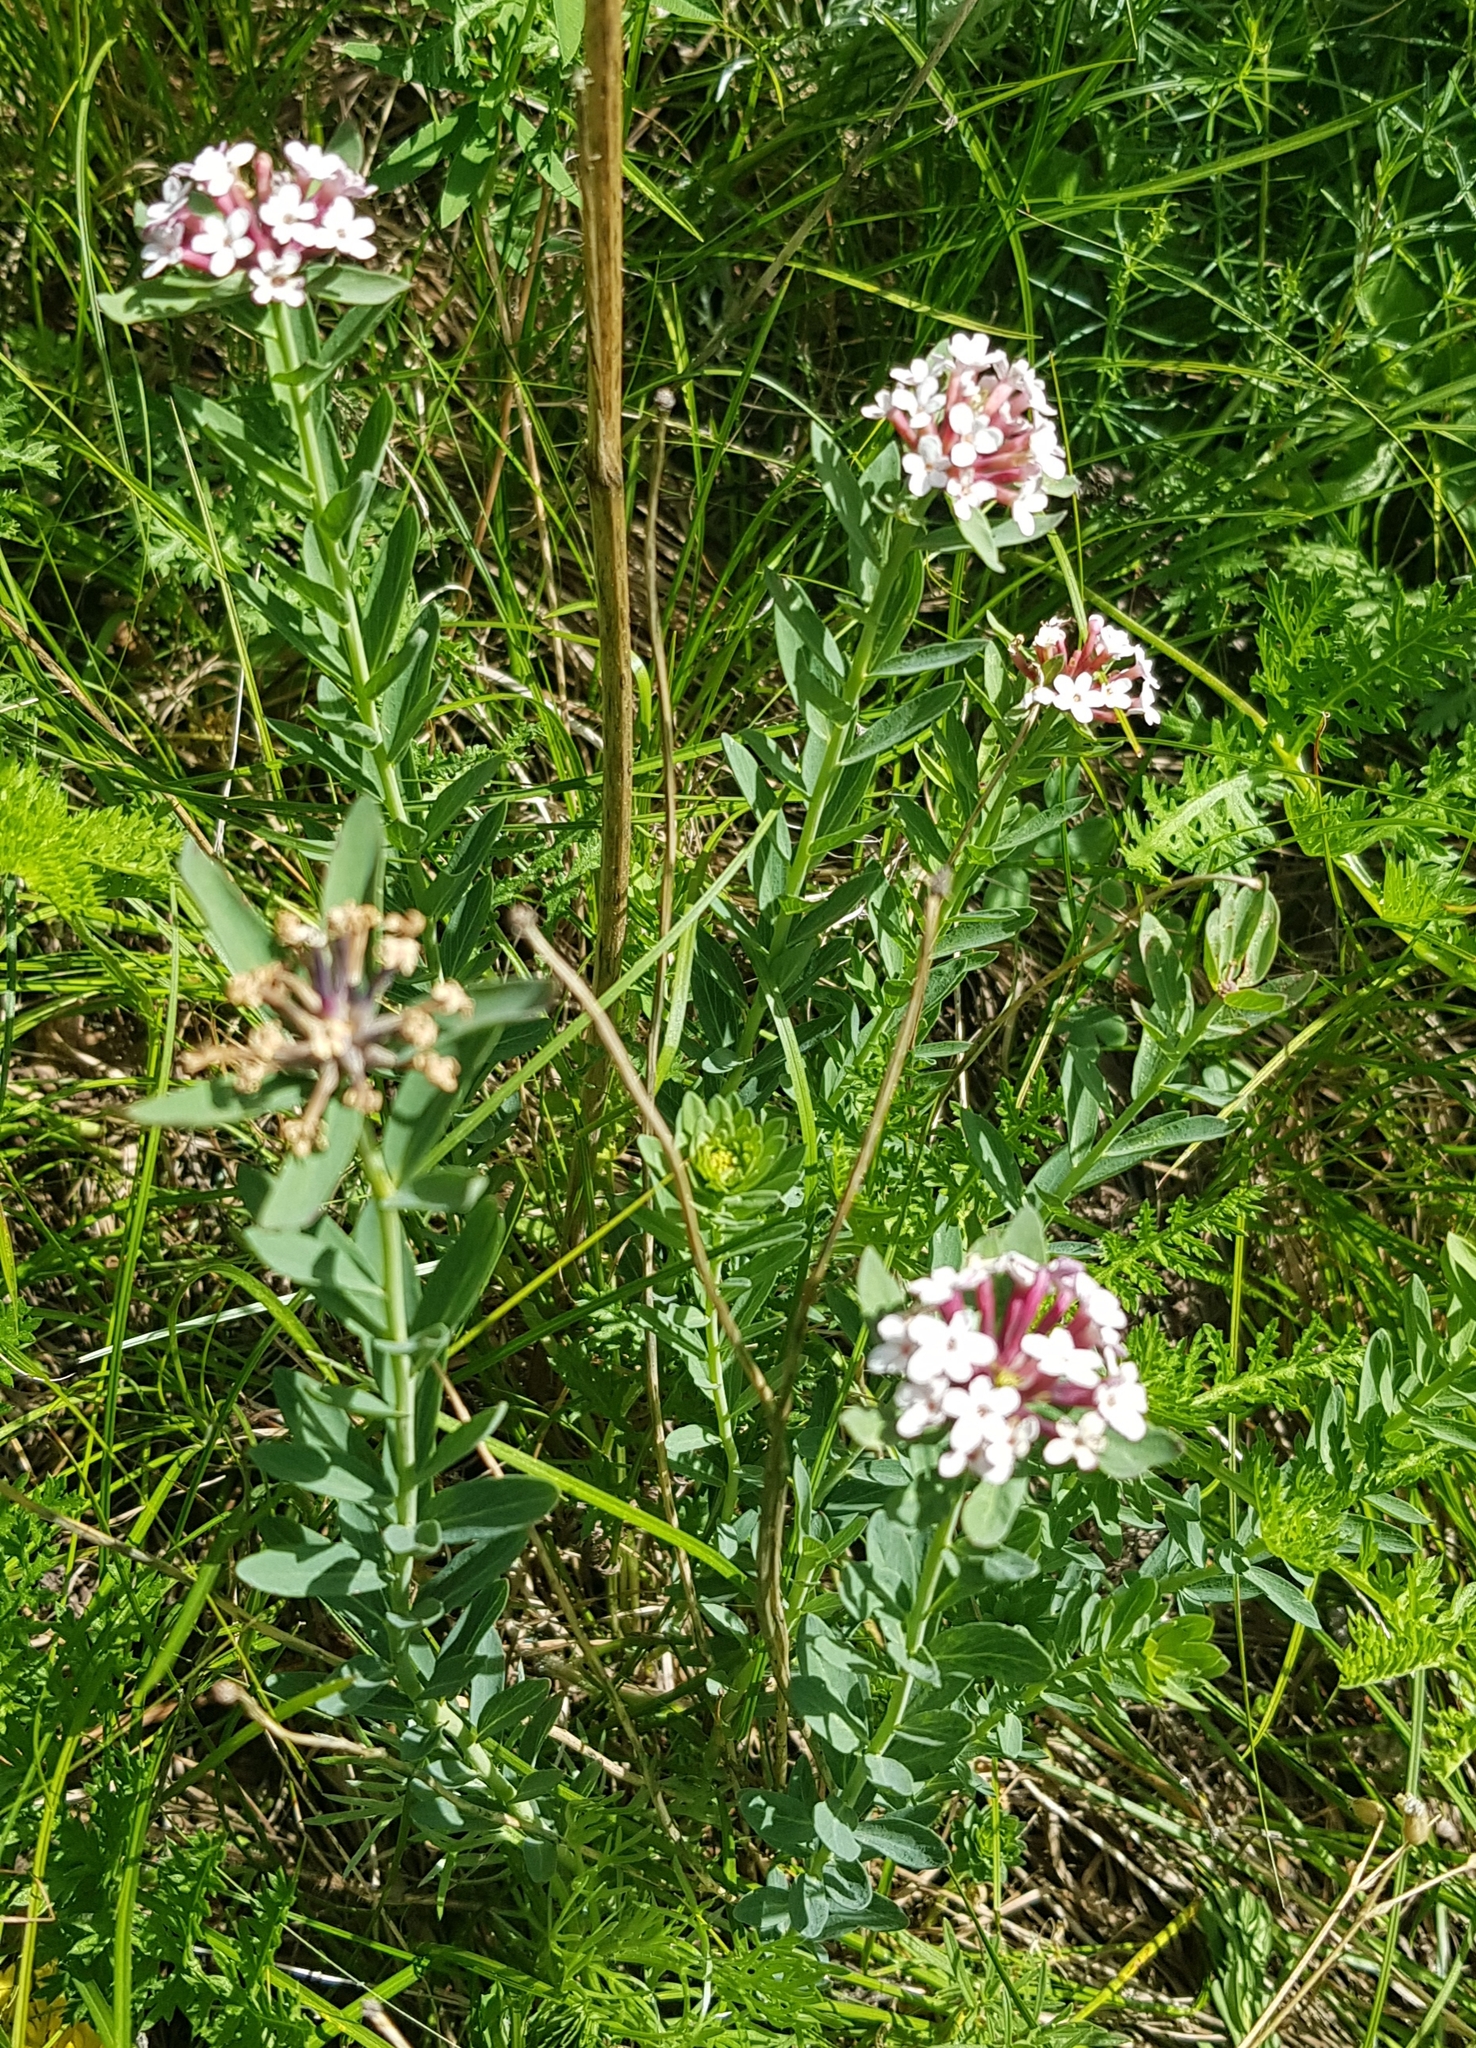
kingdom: Plantae
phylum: Tracheophyta
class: Magnoliopsida
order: Malvales
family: Thymelaeaceae
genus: Stellera
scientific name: Stellera chamaejasme
